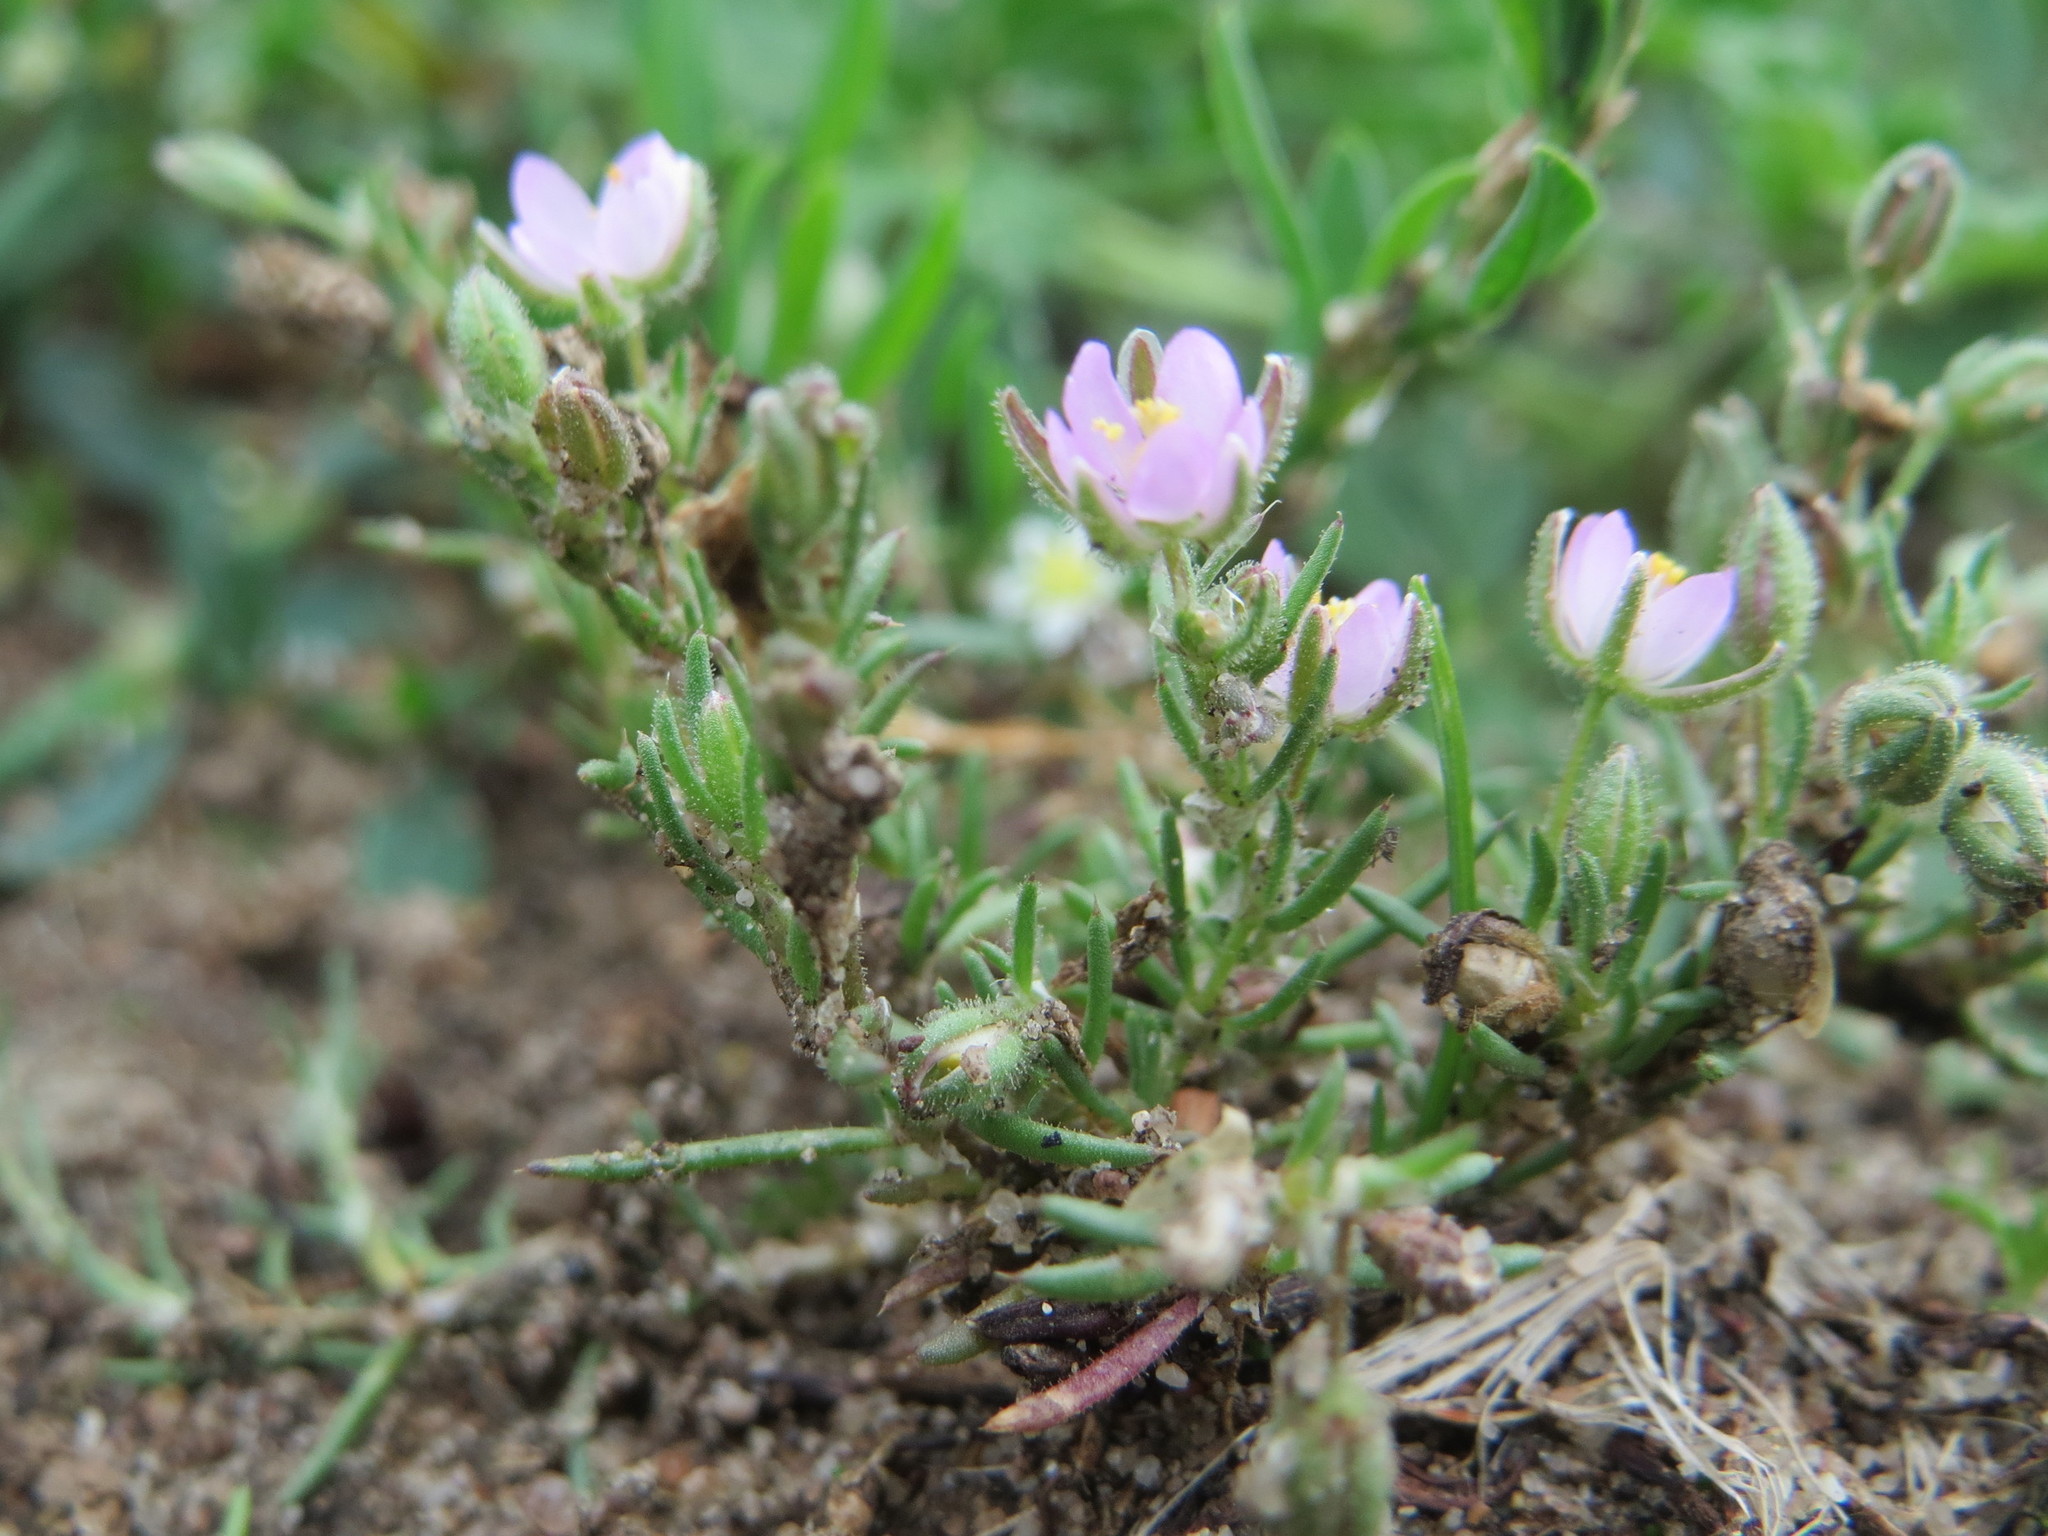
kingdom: Plantae
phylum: Tracheophyta
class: Magnoliopsida
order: Caryophyllales
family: Caryophyllaceae
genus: Spergularia
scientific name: Spergularia rubra
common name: Red sand-spurrey
